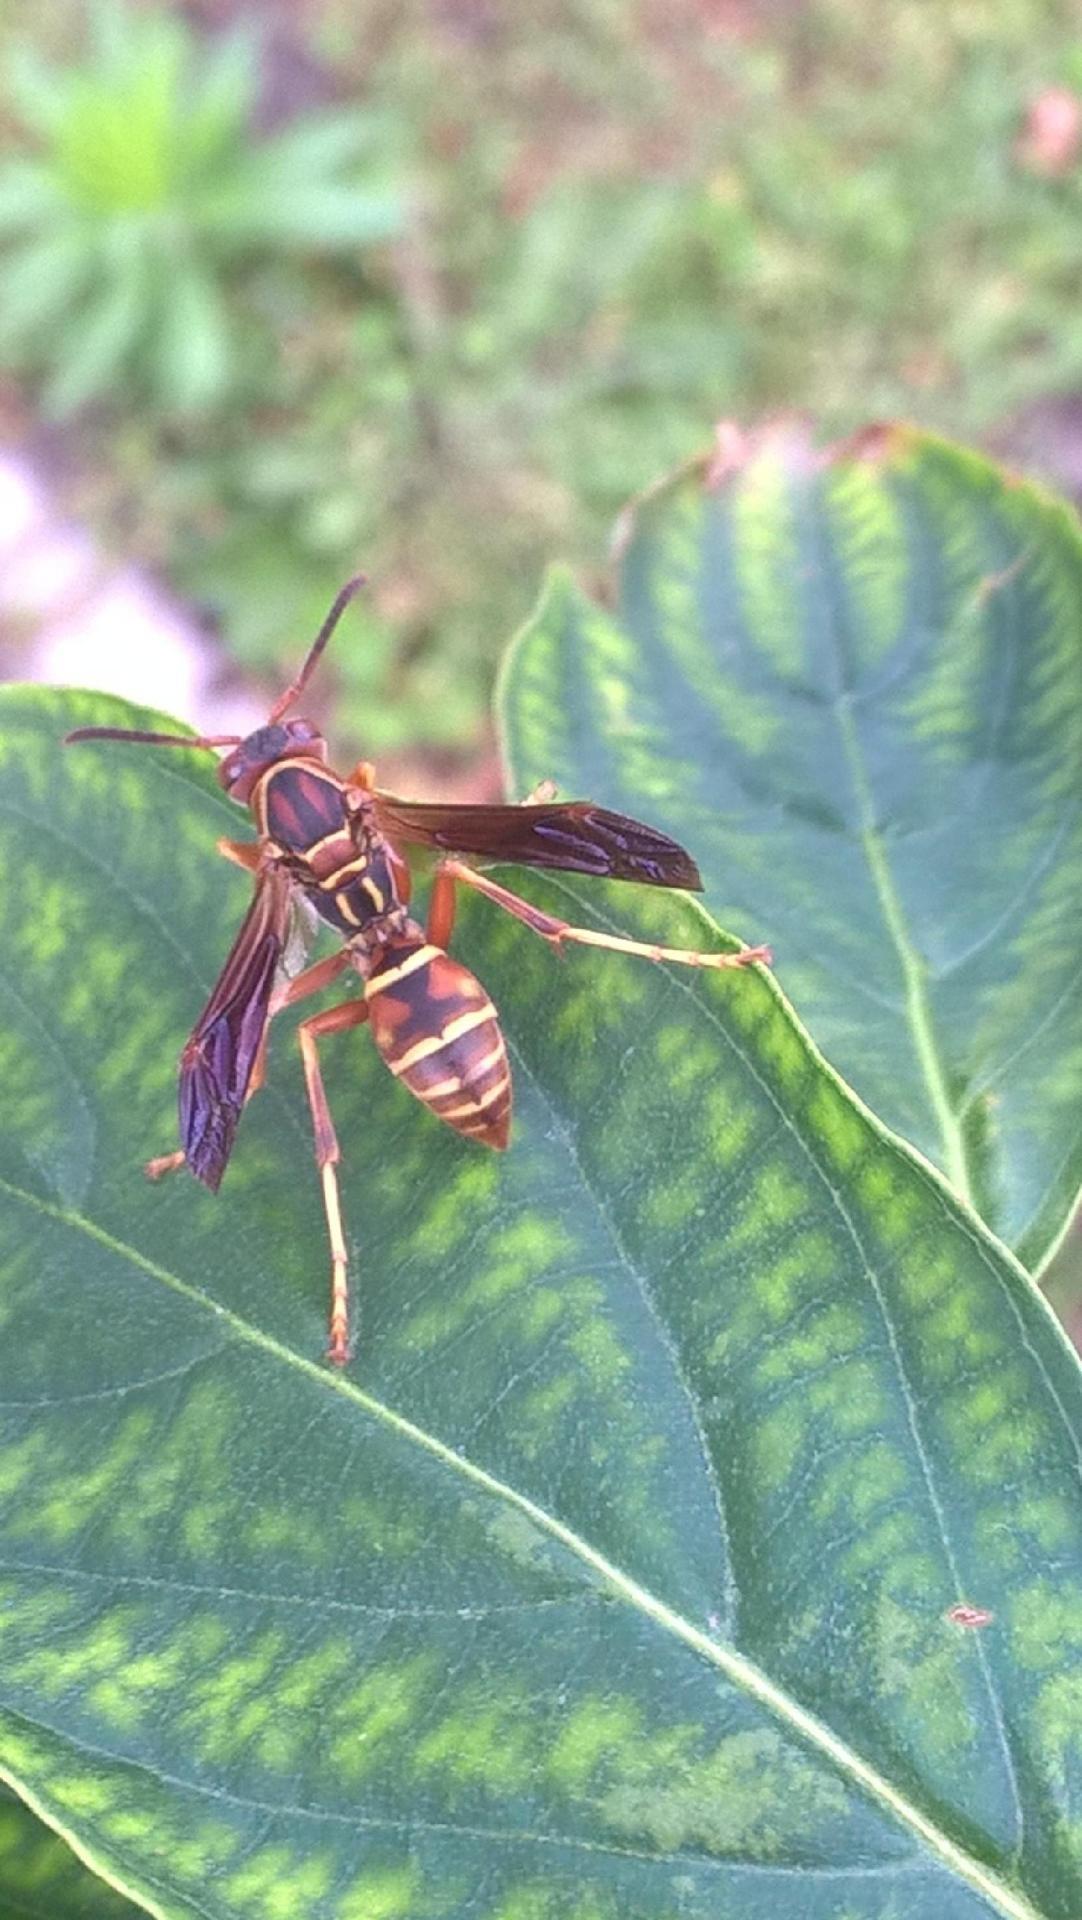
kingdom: Animalia
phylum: Arthropoda
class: Insecta
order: Hymenoptera
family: Eumenidae
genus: Polistes
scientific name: Polistes fuscatus
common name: Dark paper wasp
